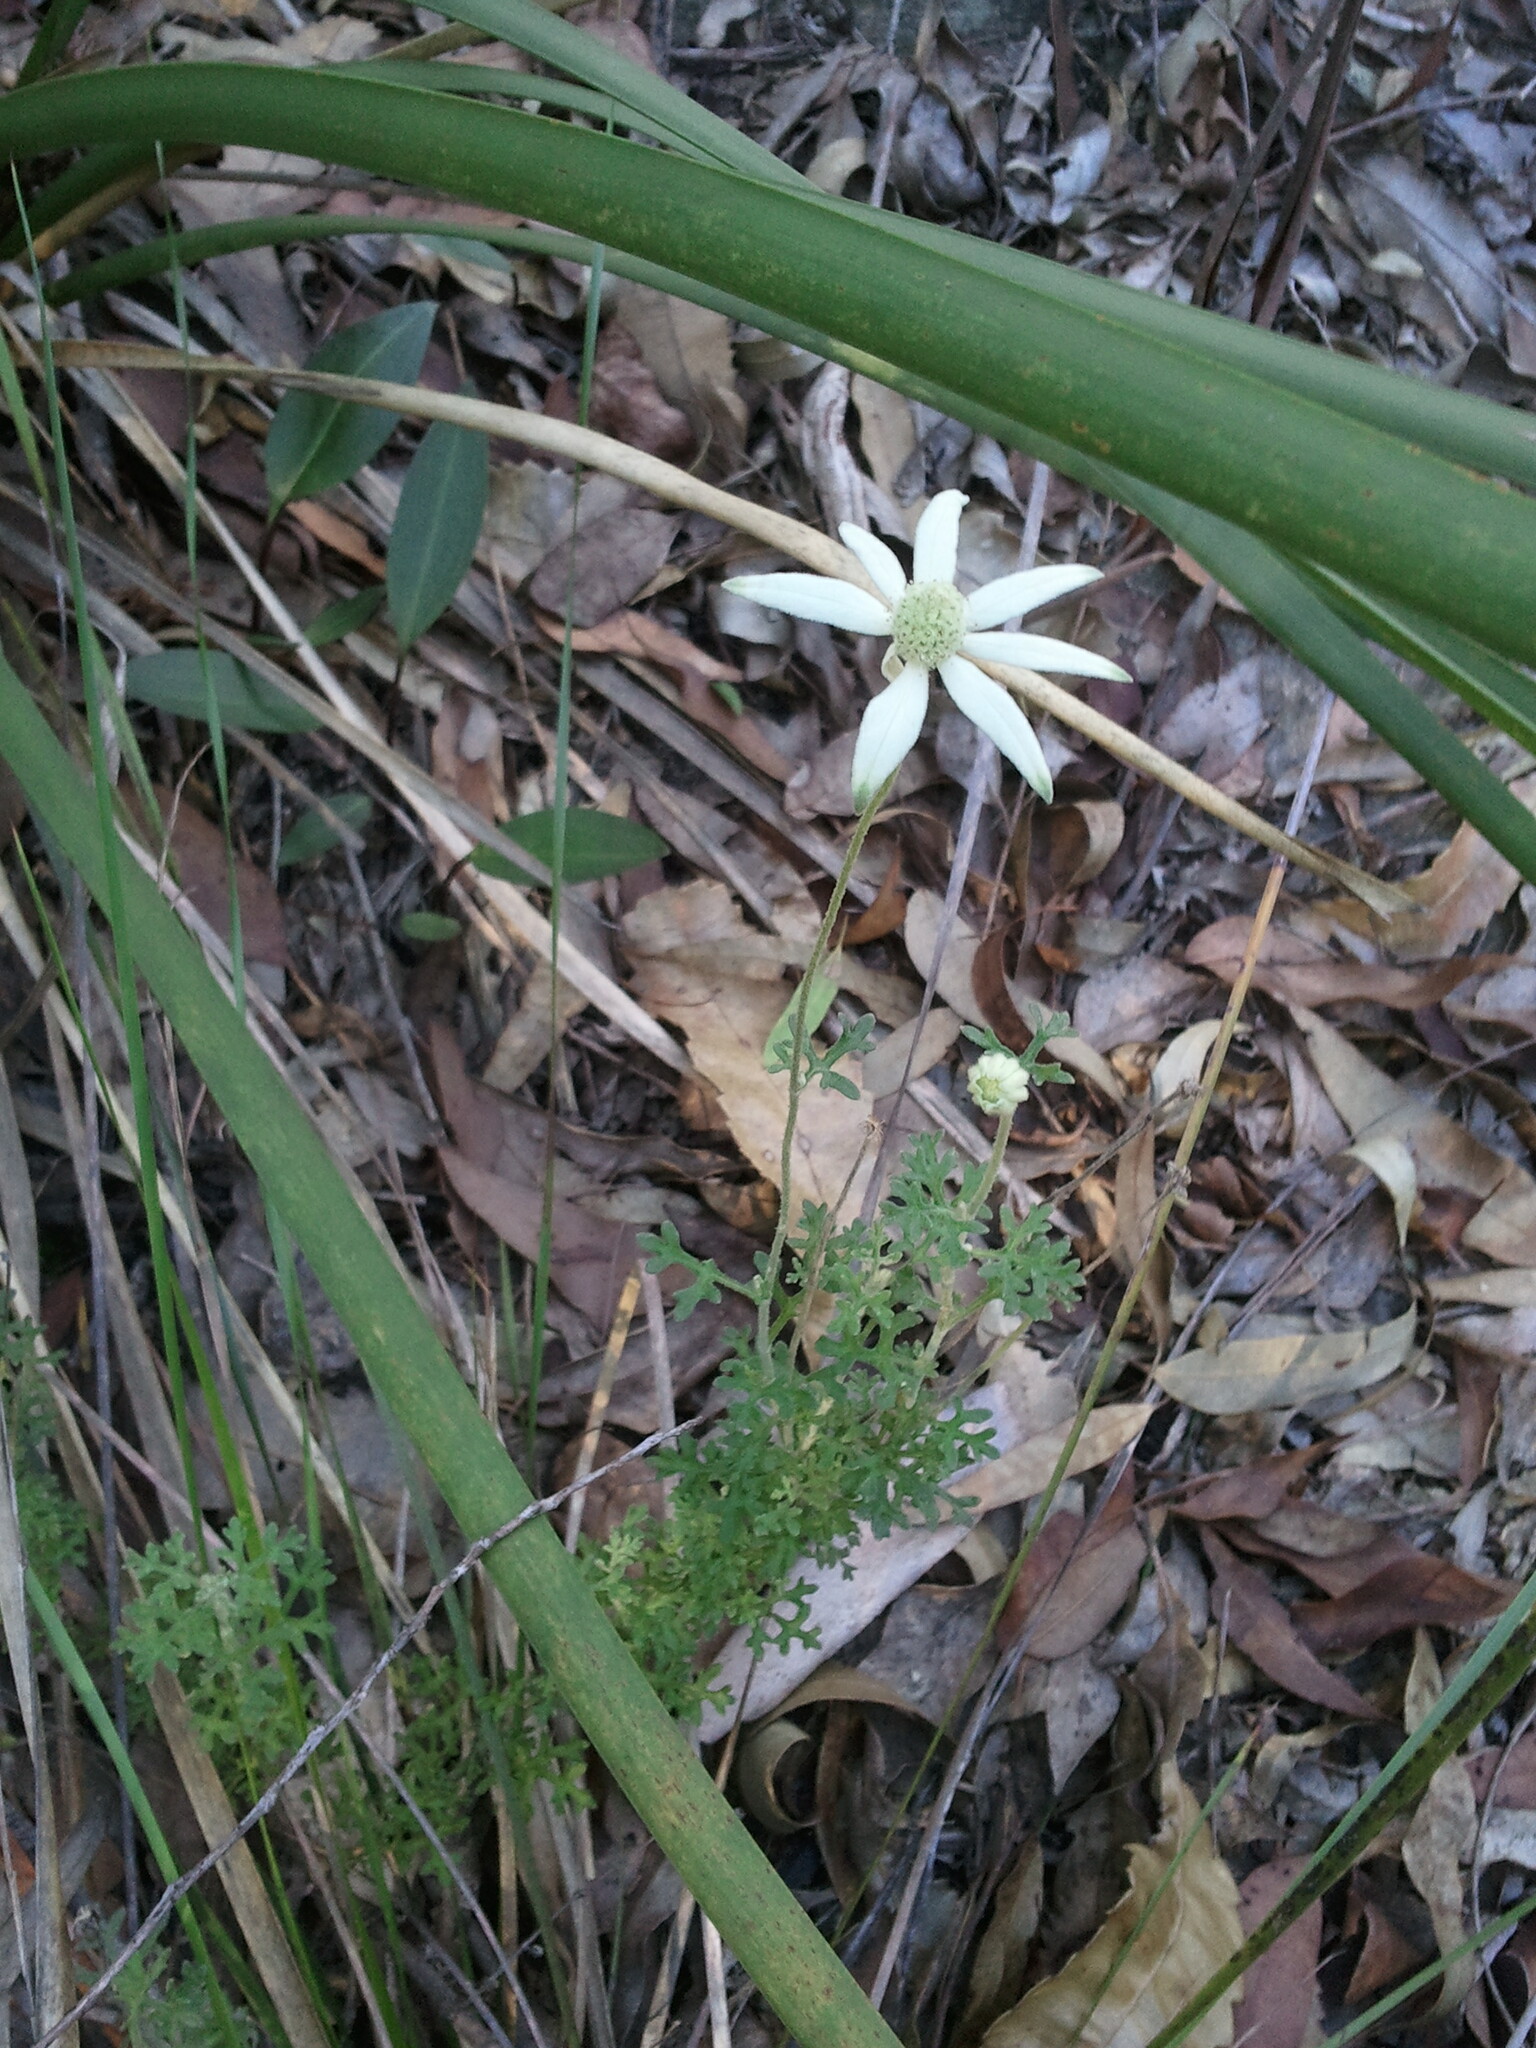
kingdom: Plantae
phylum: Tracheophyta
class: Magnoliopsida
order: Apiales
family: Apiaceae
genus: Actinotus
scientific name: Actinotus helianthi
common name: Flannel-flower
